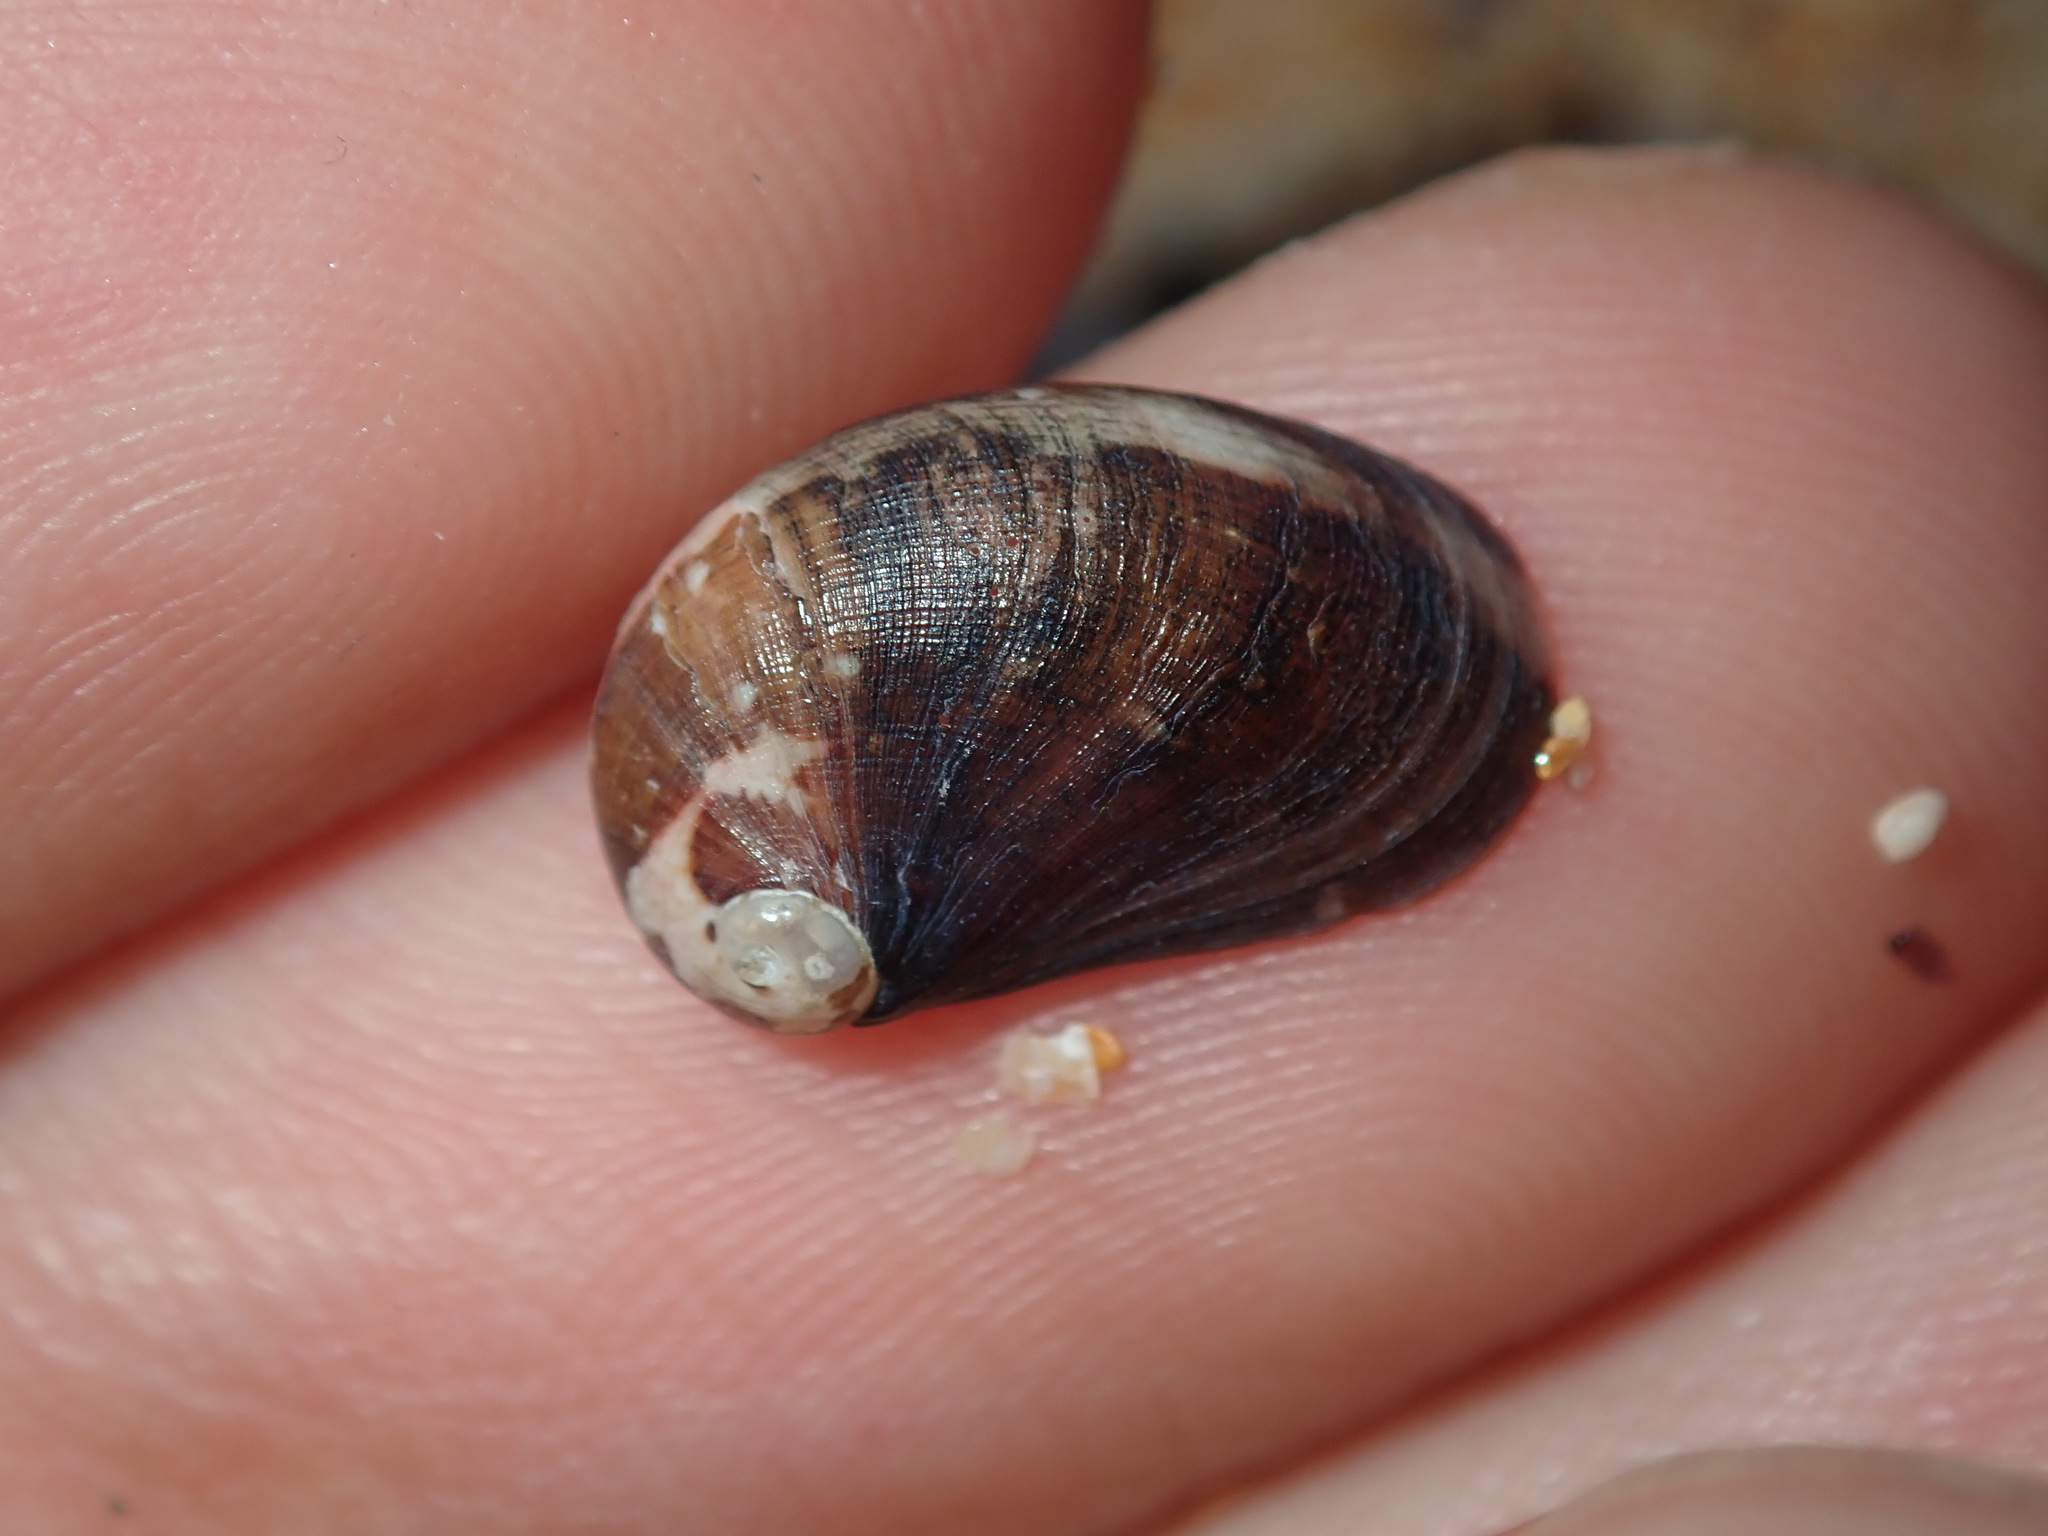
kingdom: Animalia
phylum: Mollusca
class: Gastropoda
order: Trochida
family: Trochidae
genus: Stomatella
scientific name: Stomatella impertusa
